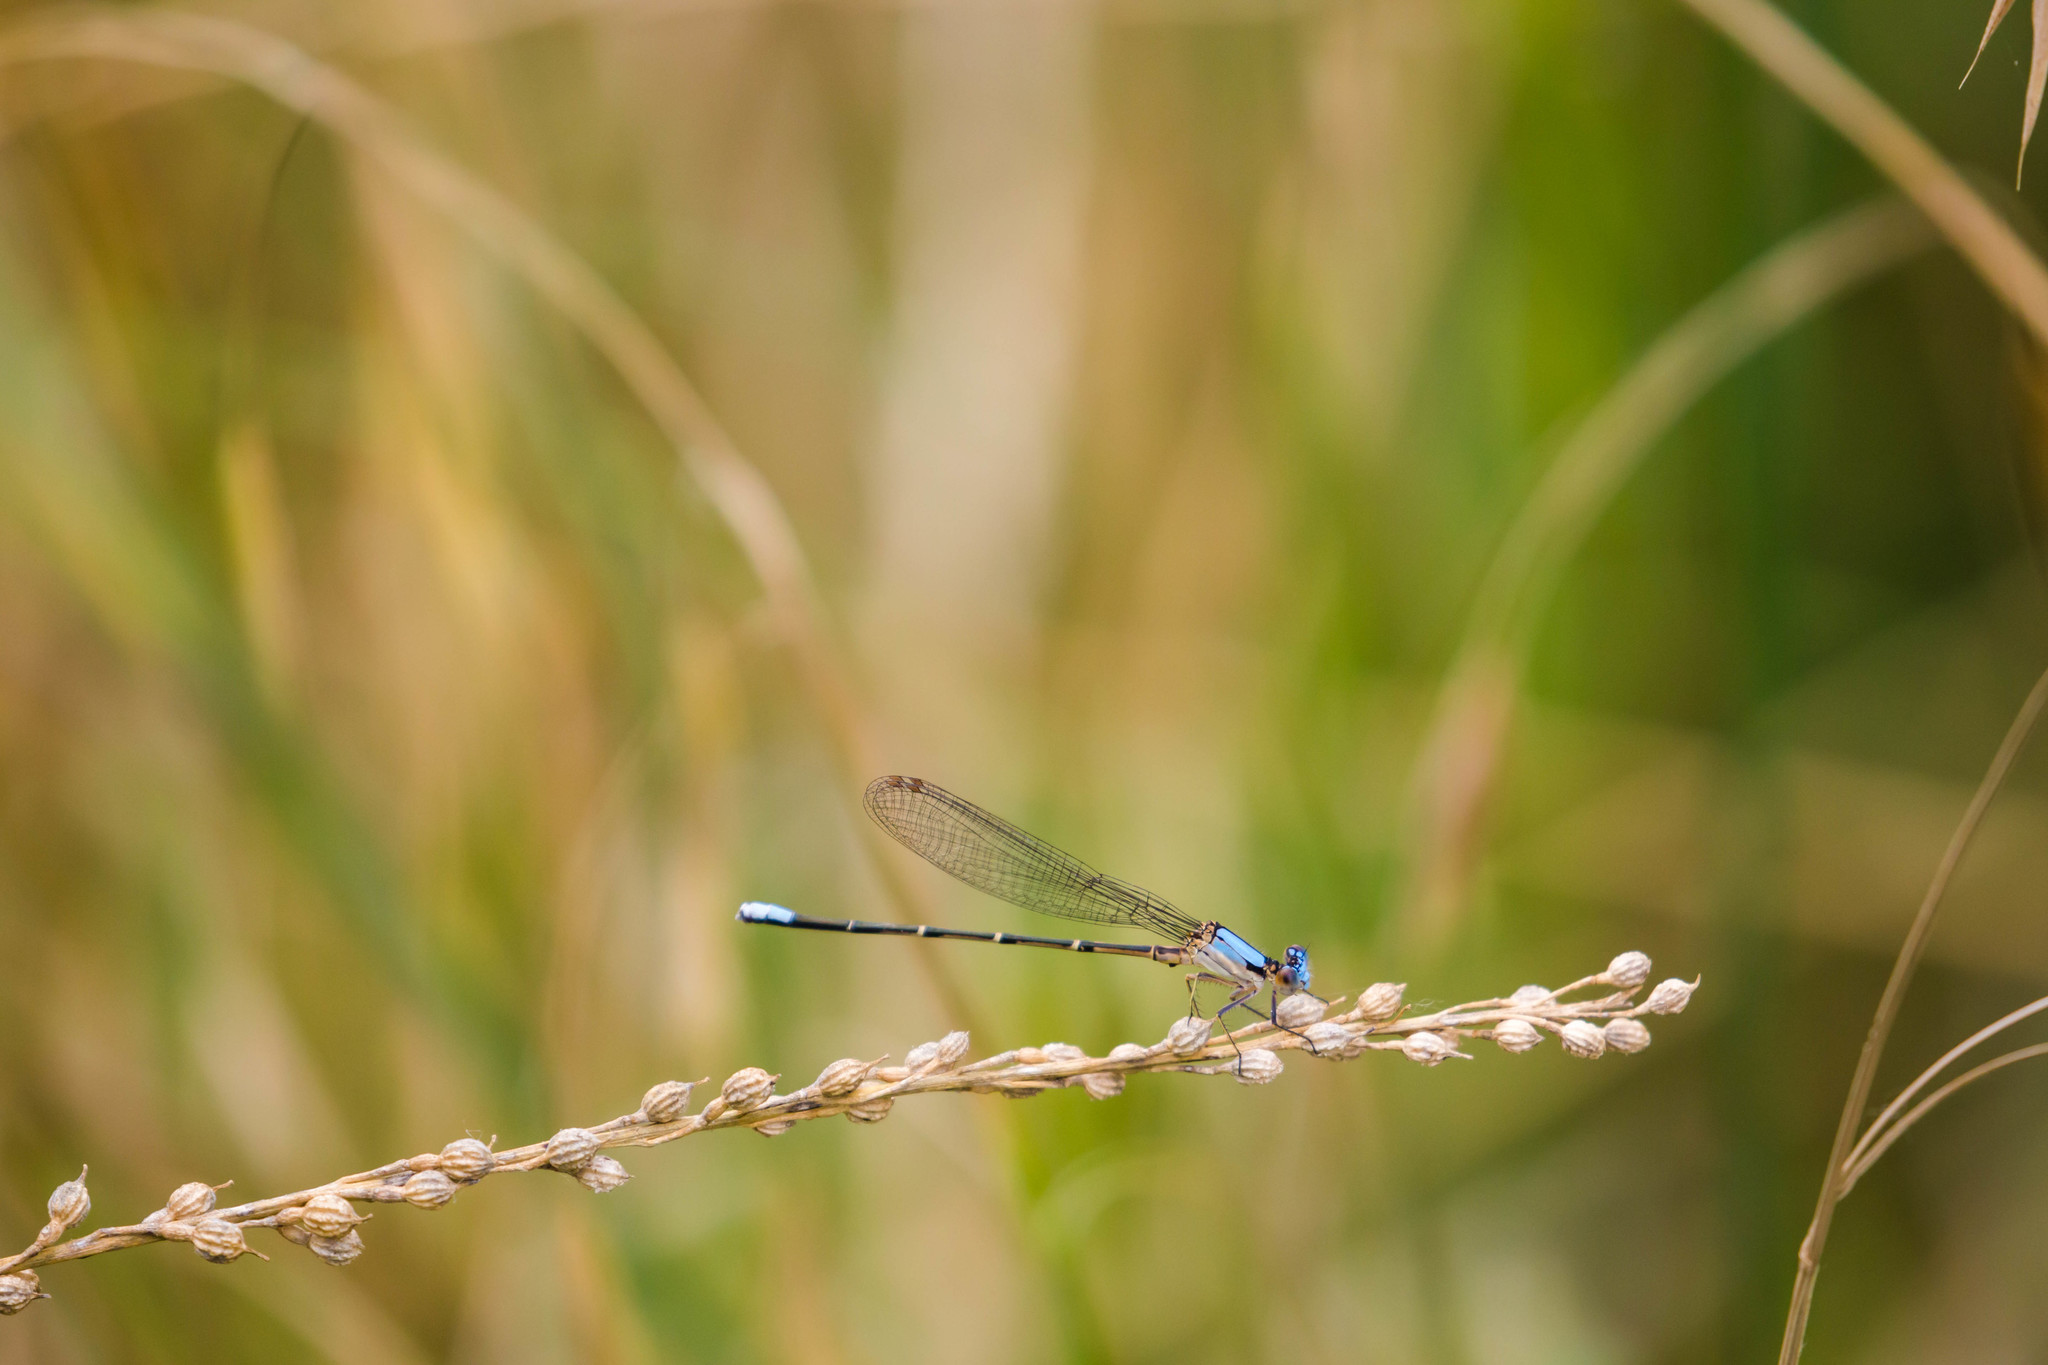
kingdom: Animalia
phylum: Arthropoda
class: Insecta
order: Odonata
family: Coenagrionidae
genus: Argia
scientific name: Argia apicalis
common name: Blue-fronted dancer
